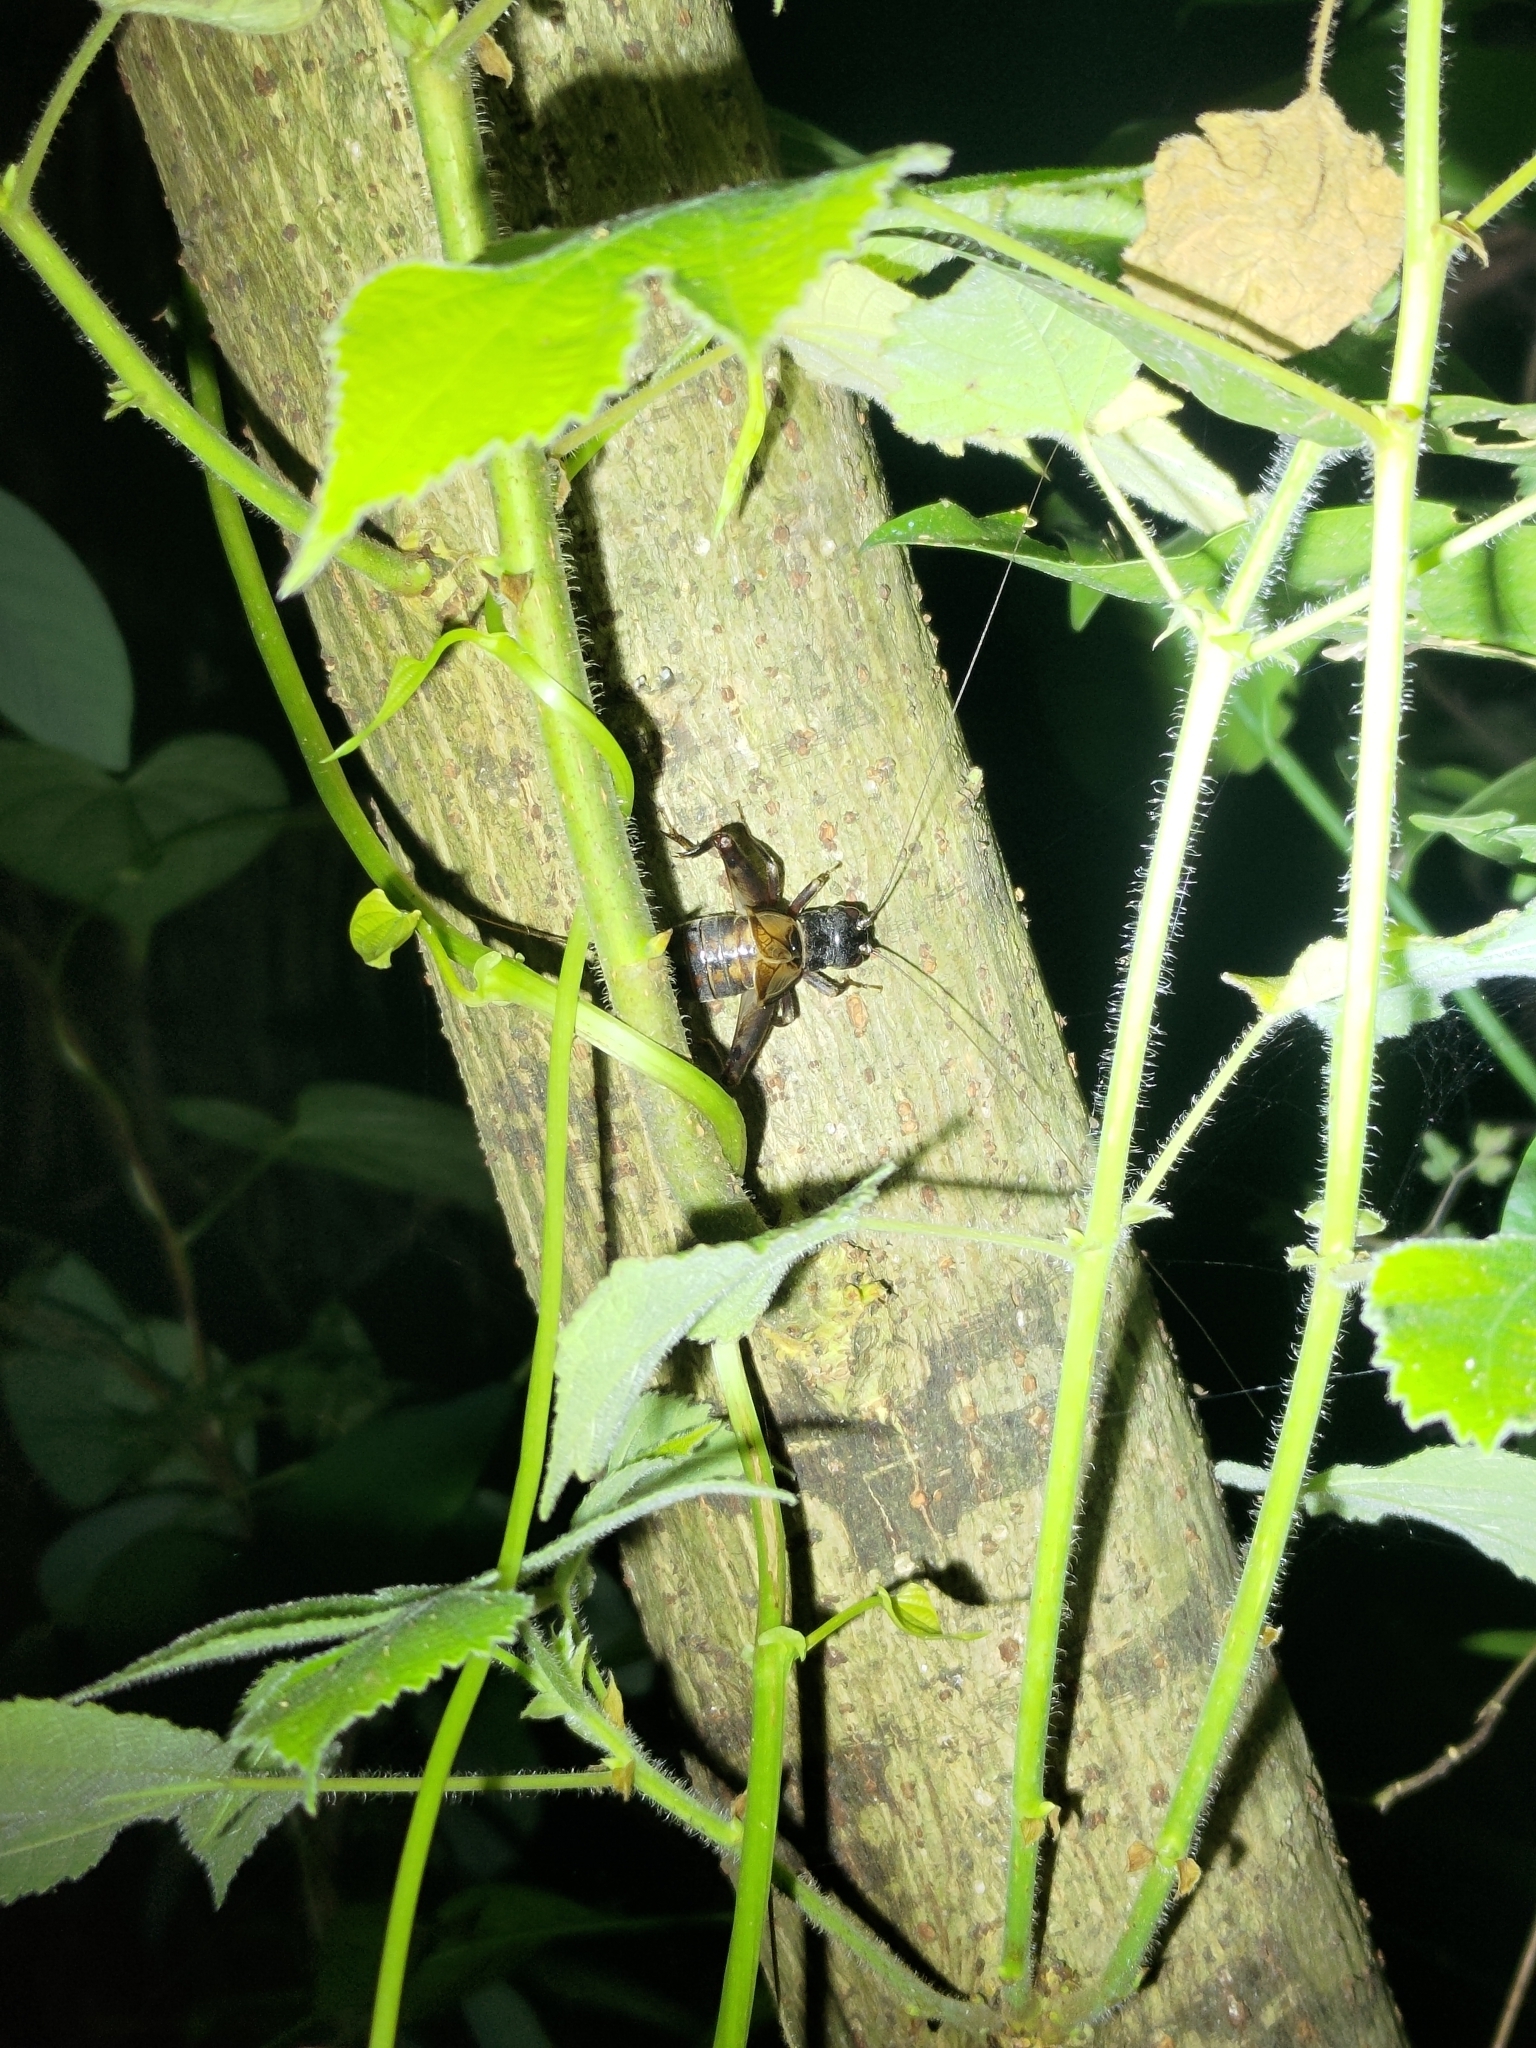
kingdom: Animalia
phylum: Arthropoda
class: Insecta
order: Orthoptera
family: Gryllidae
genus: Duolandrevus
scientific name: Duolandrevus coulonianus
